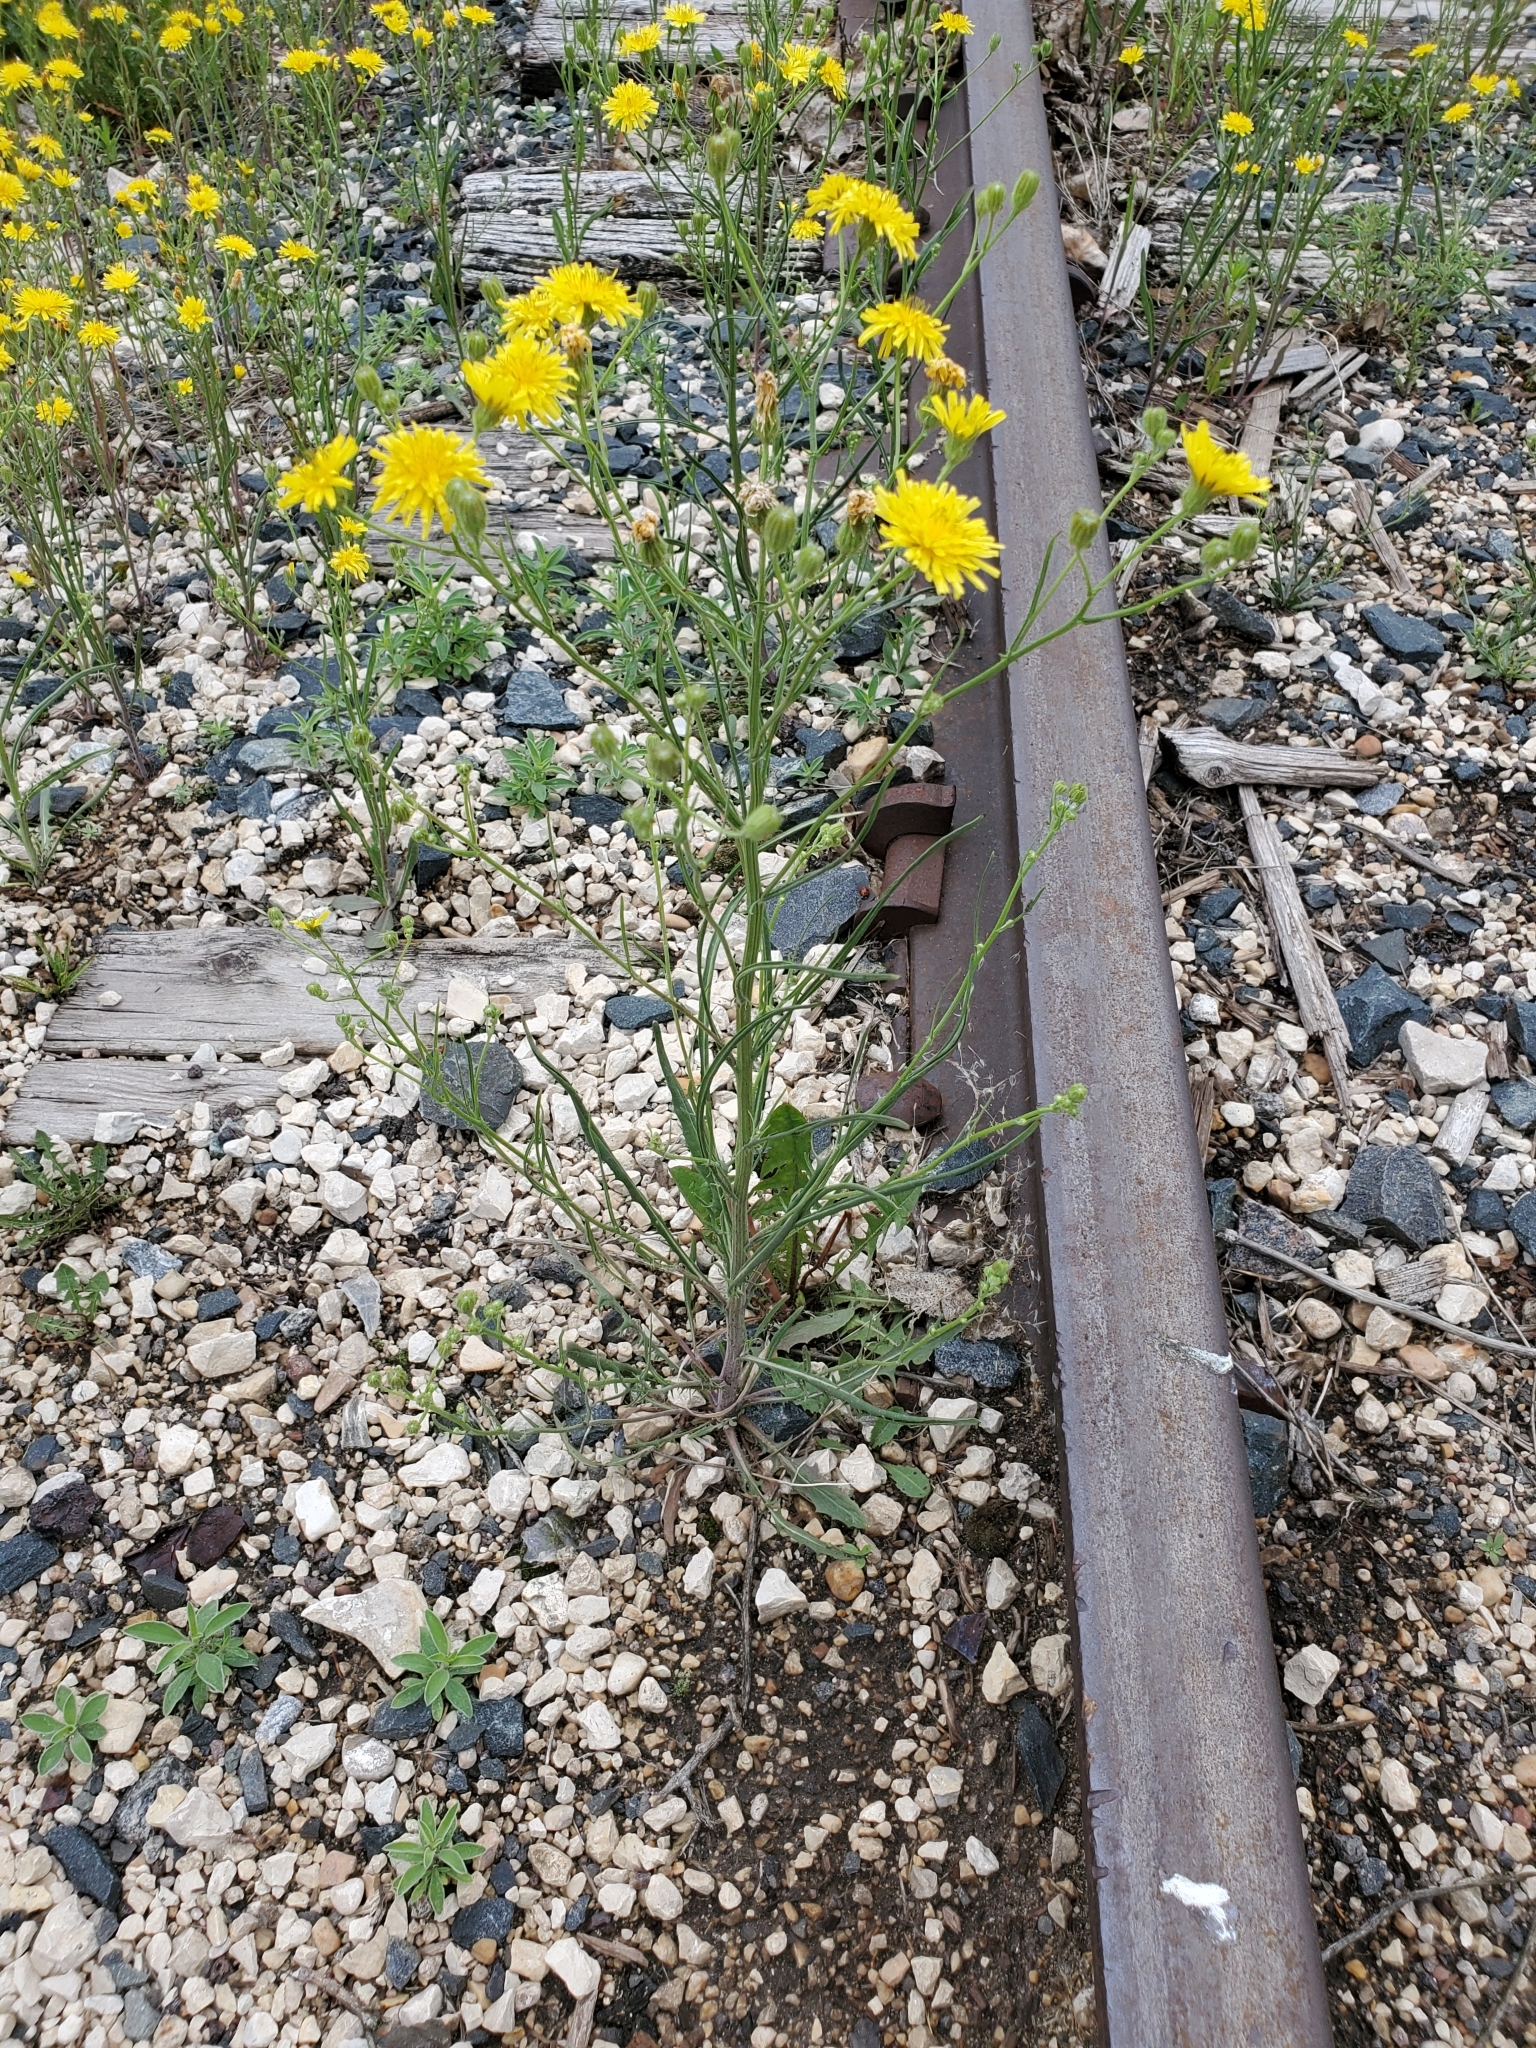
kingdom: Plantae
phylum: Tracheophyta
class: Magnoliopsida
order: Asterales
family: Asteraceae
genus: Crepis
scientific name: Crepis tectorum
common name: Narrow-leaved hawk's-beard
